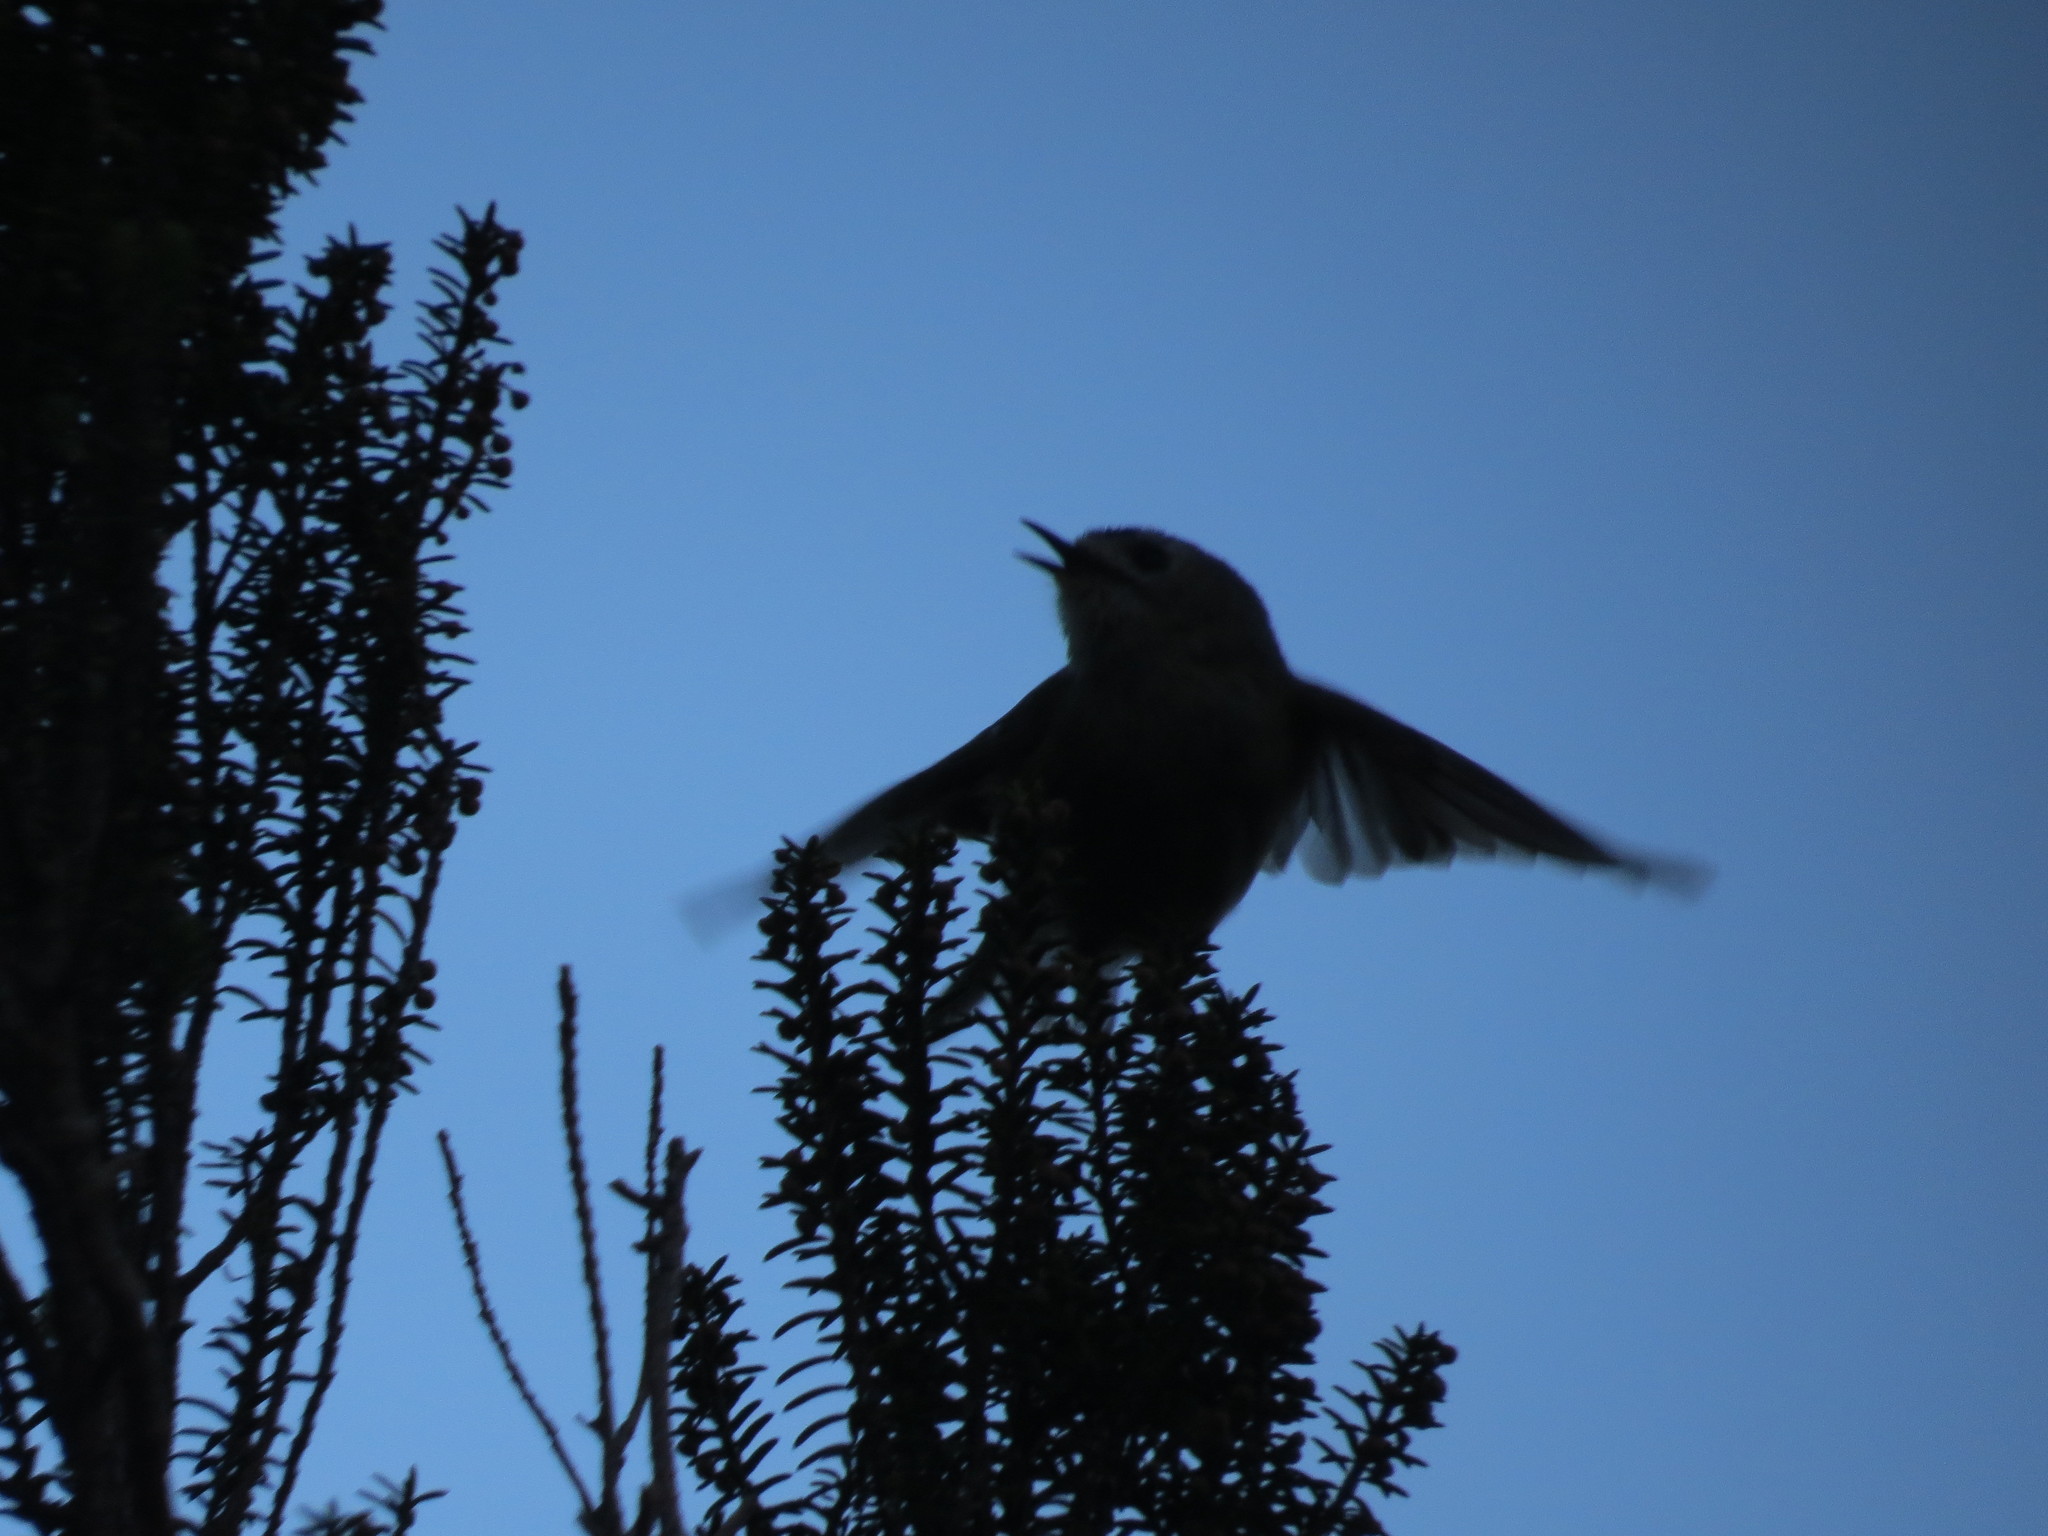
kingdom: Animalia
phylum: Chordata
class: Aves
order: Passeriformes
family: Regulidae
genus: Regulus
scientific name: Regulus regulus
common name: Goldcrest
